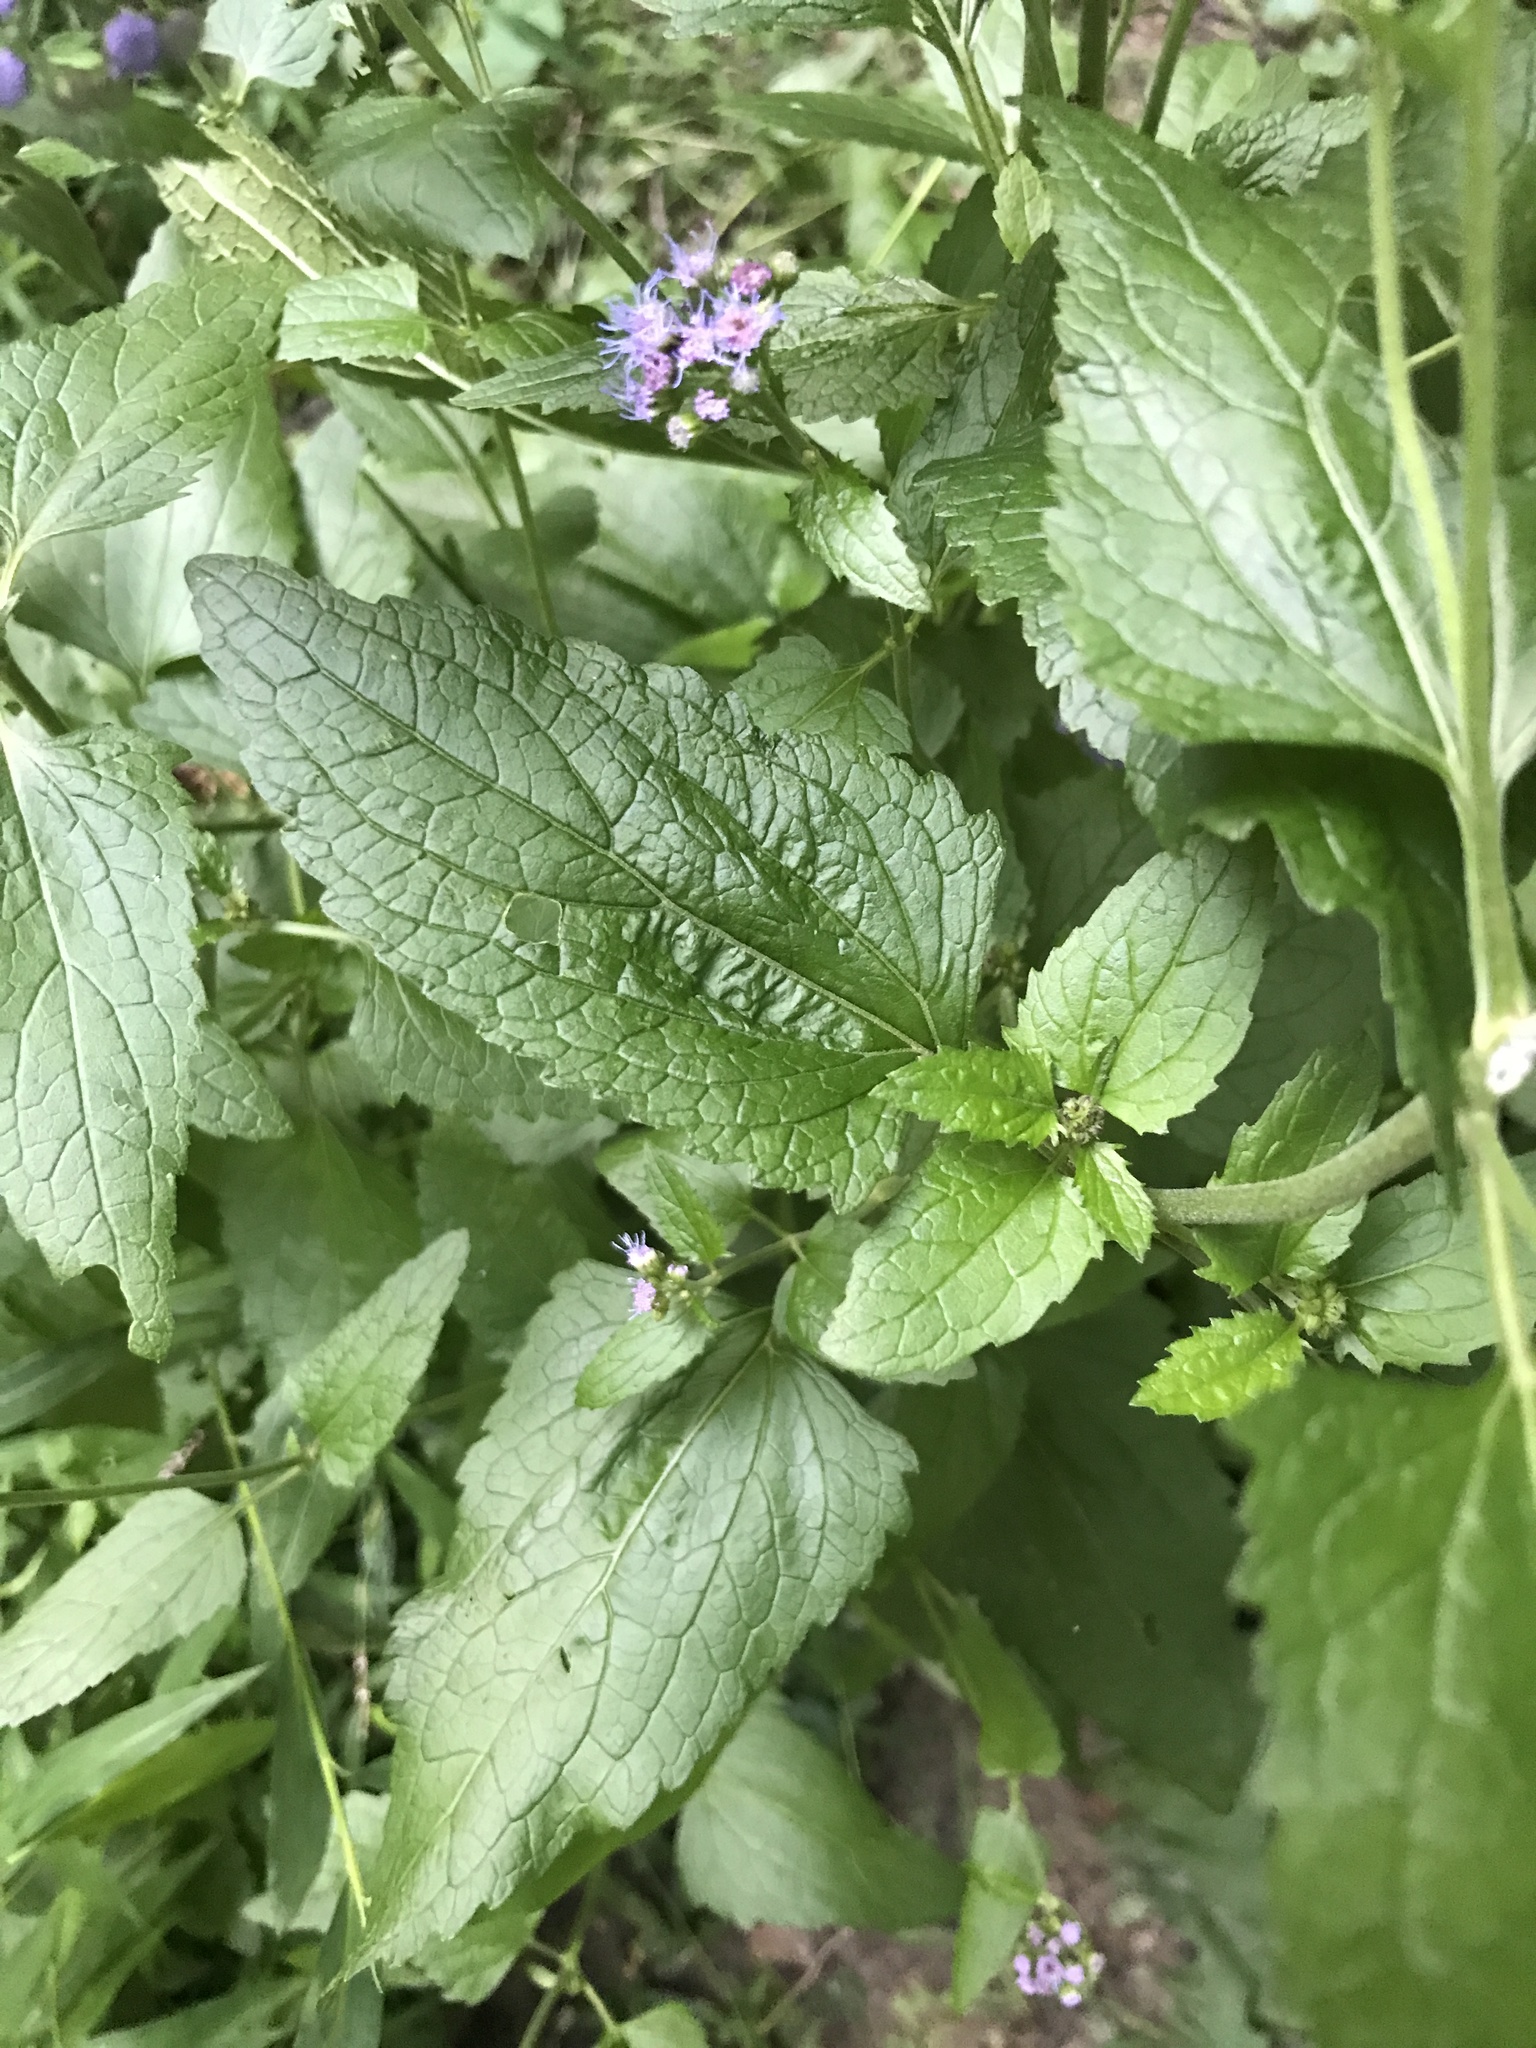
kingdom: Plantae
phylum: Tracheophyta
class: Magnoliopsida
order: Asterales
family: Asteraceae
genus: Conoclinium
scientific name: Conoclinium coelestinum
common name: Blue mistflower
